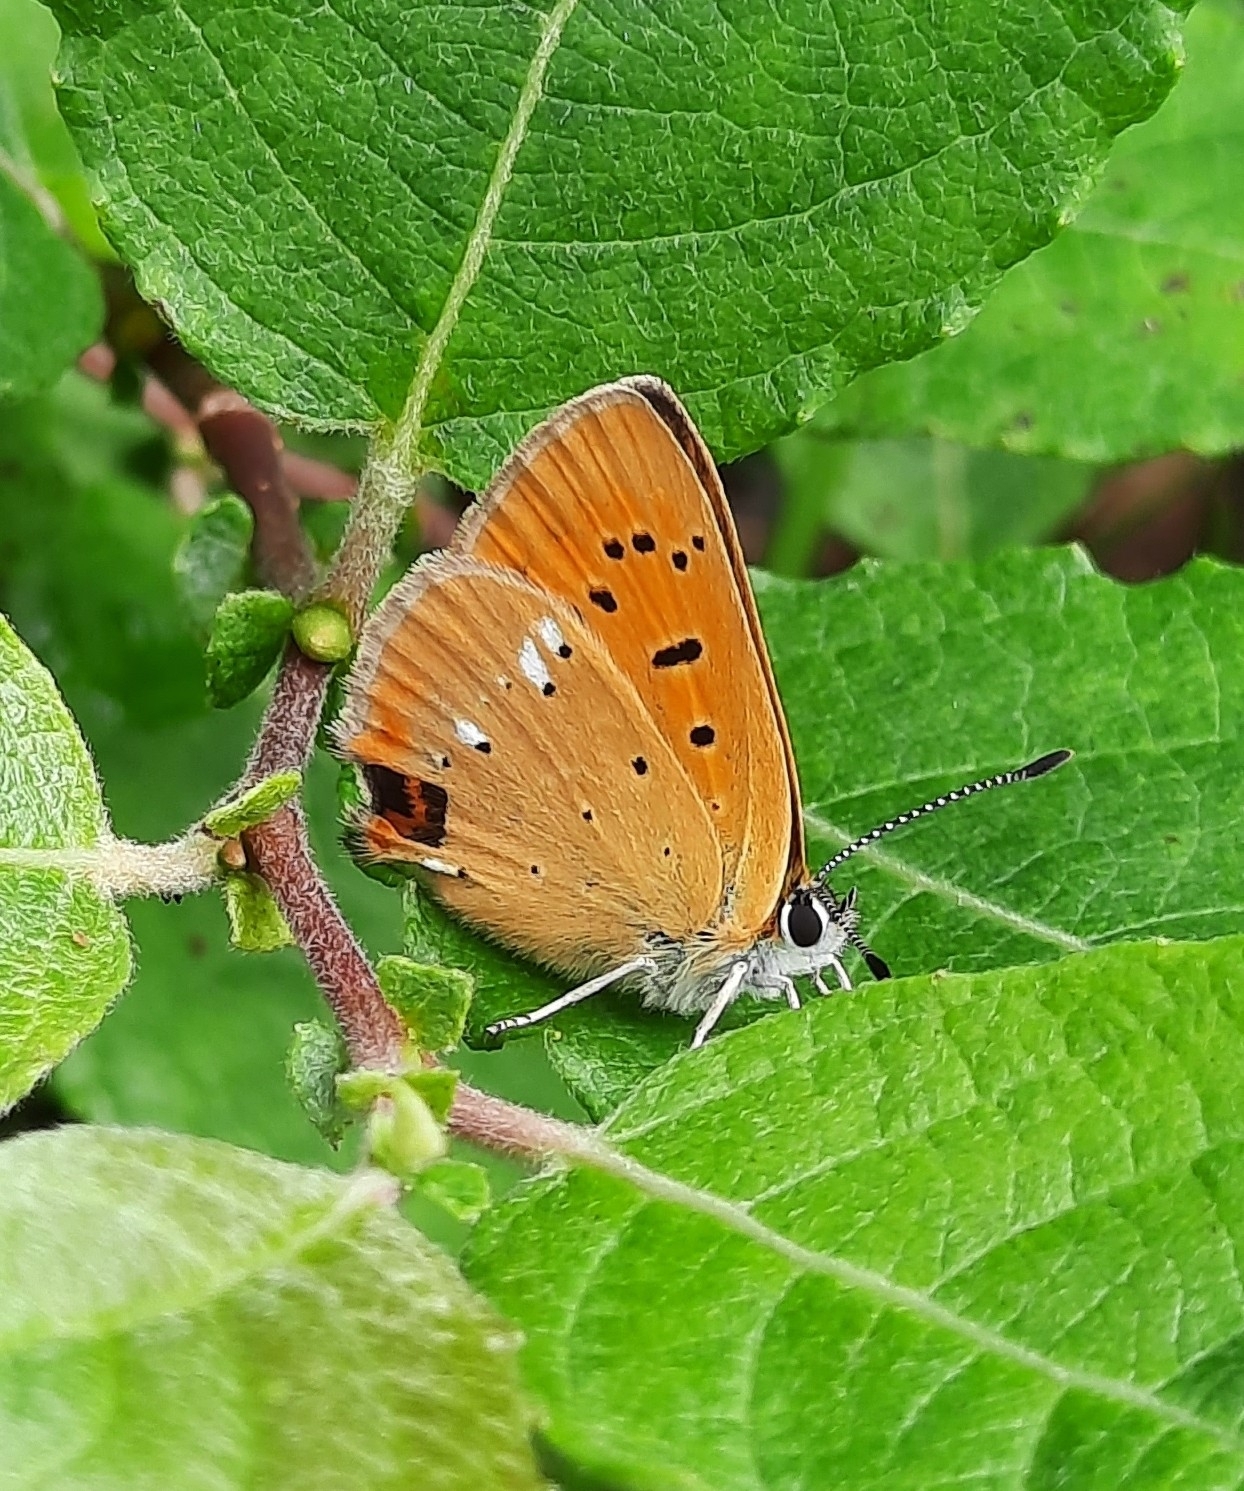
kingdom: Animalia
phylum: Arthropoda
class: Insecta
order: Lepidoptera
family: Lycaenidae
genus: Lycaena
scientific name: Lycaena virgaureae
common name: Scarce copper
